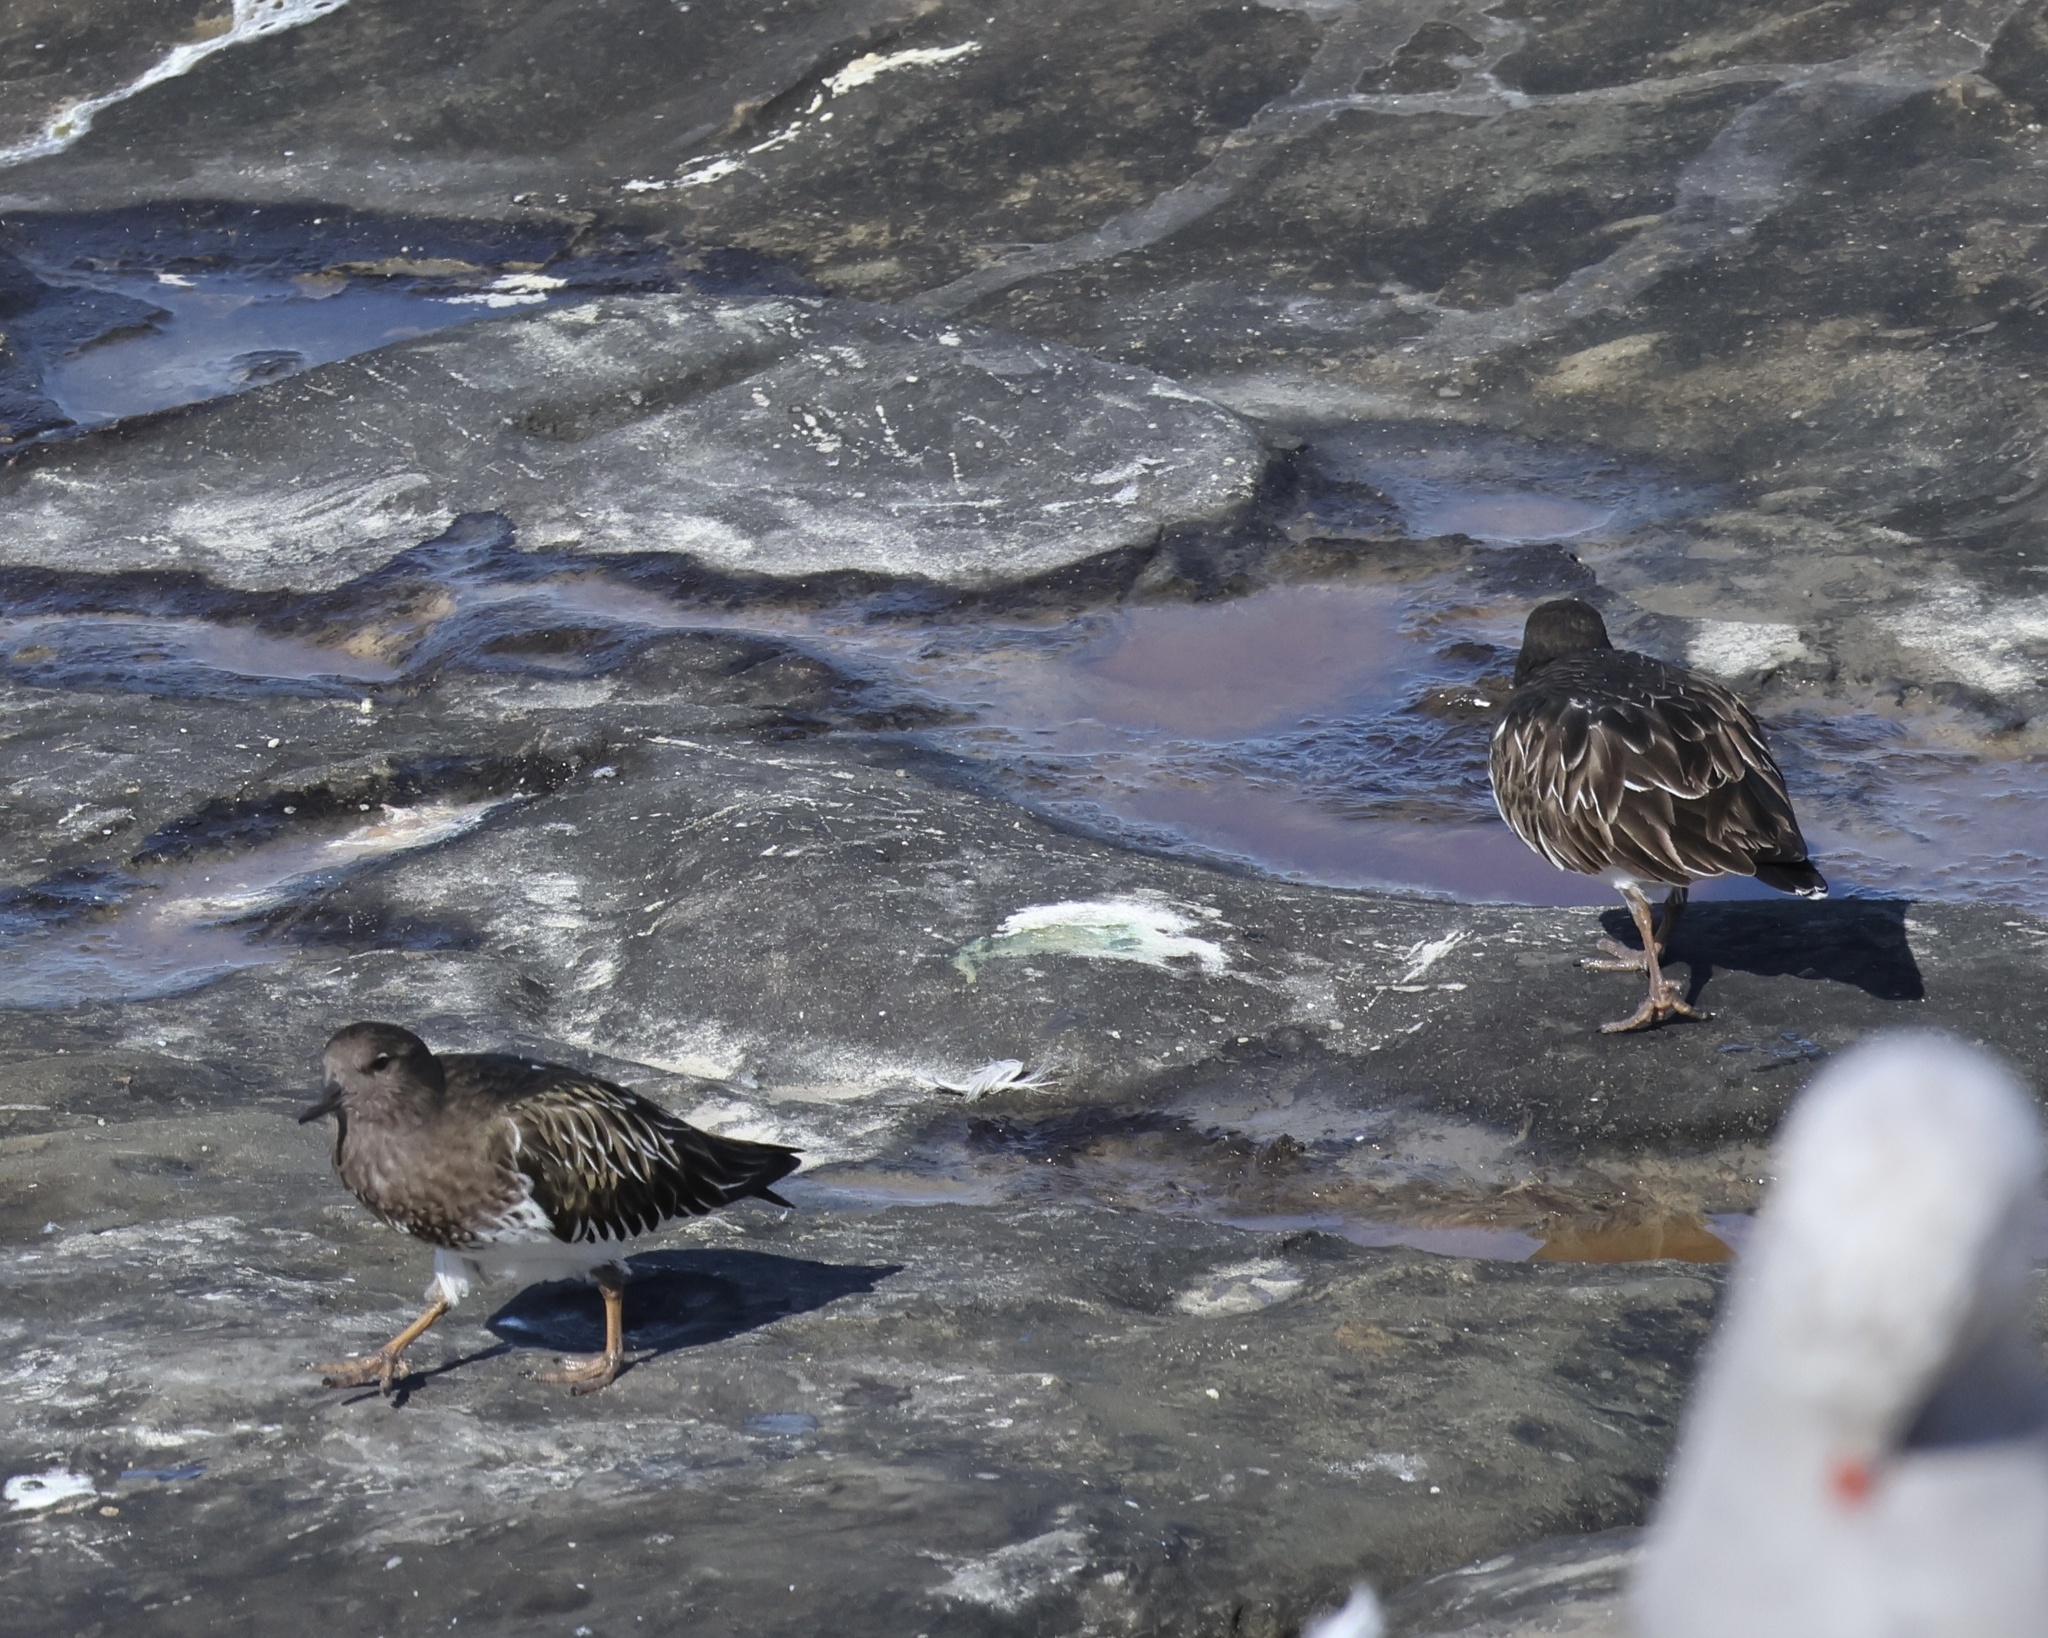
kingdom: Animalia
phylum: Chordata
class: Aves
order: Charadriiformes
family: Scolopacidae
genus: Arenaria
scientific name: Arenaria melanocephala
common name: Black turnstone
